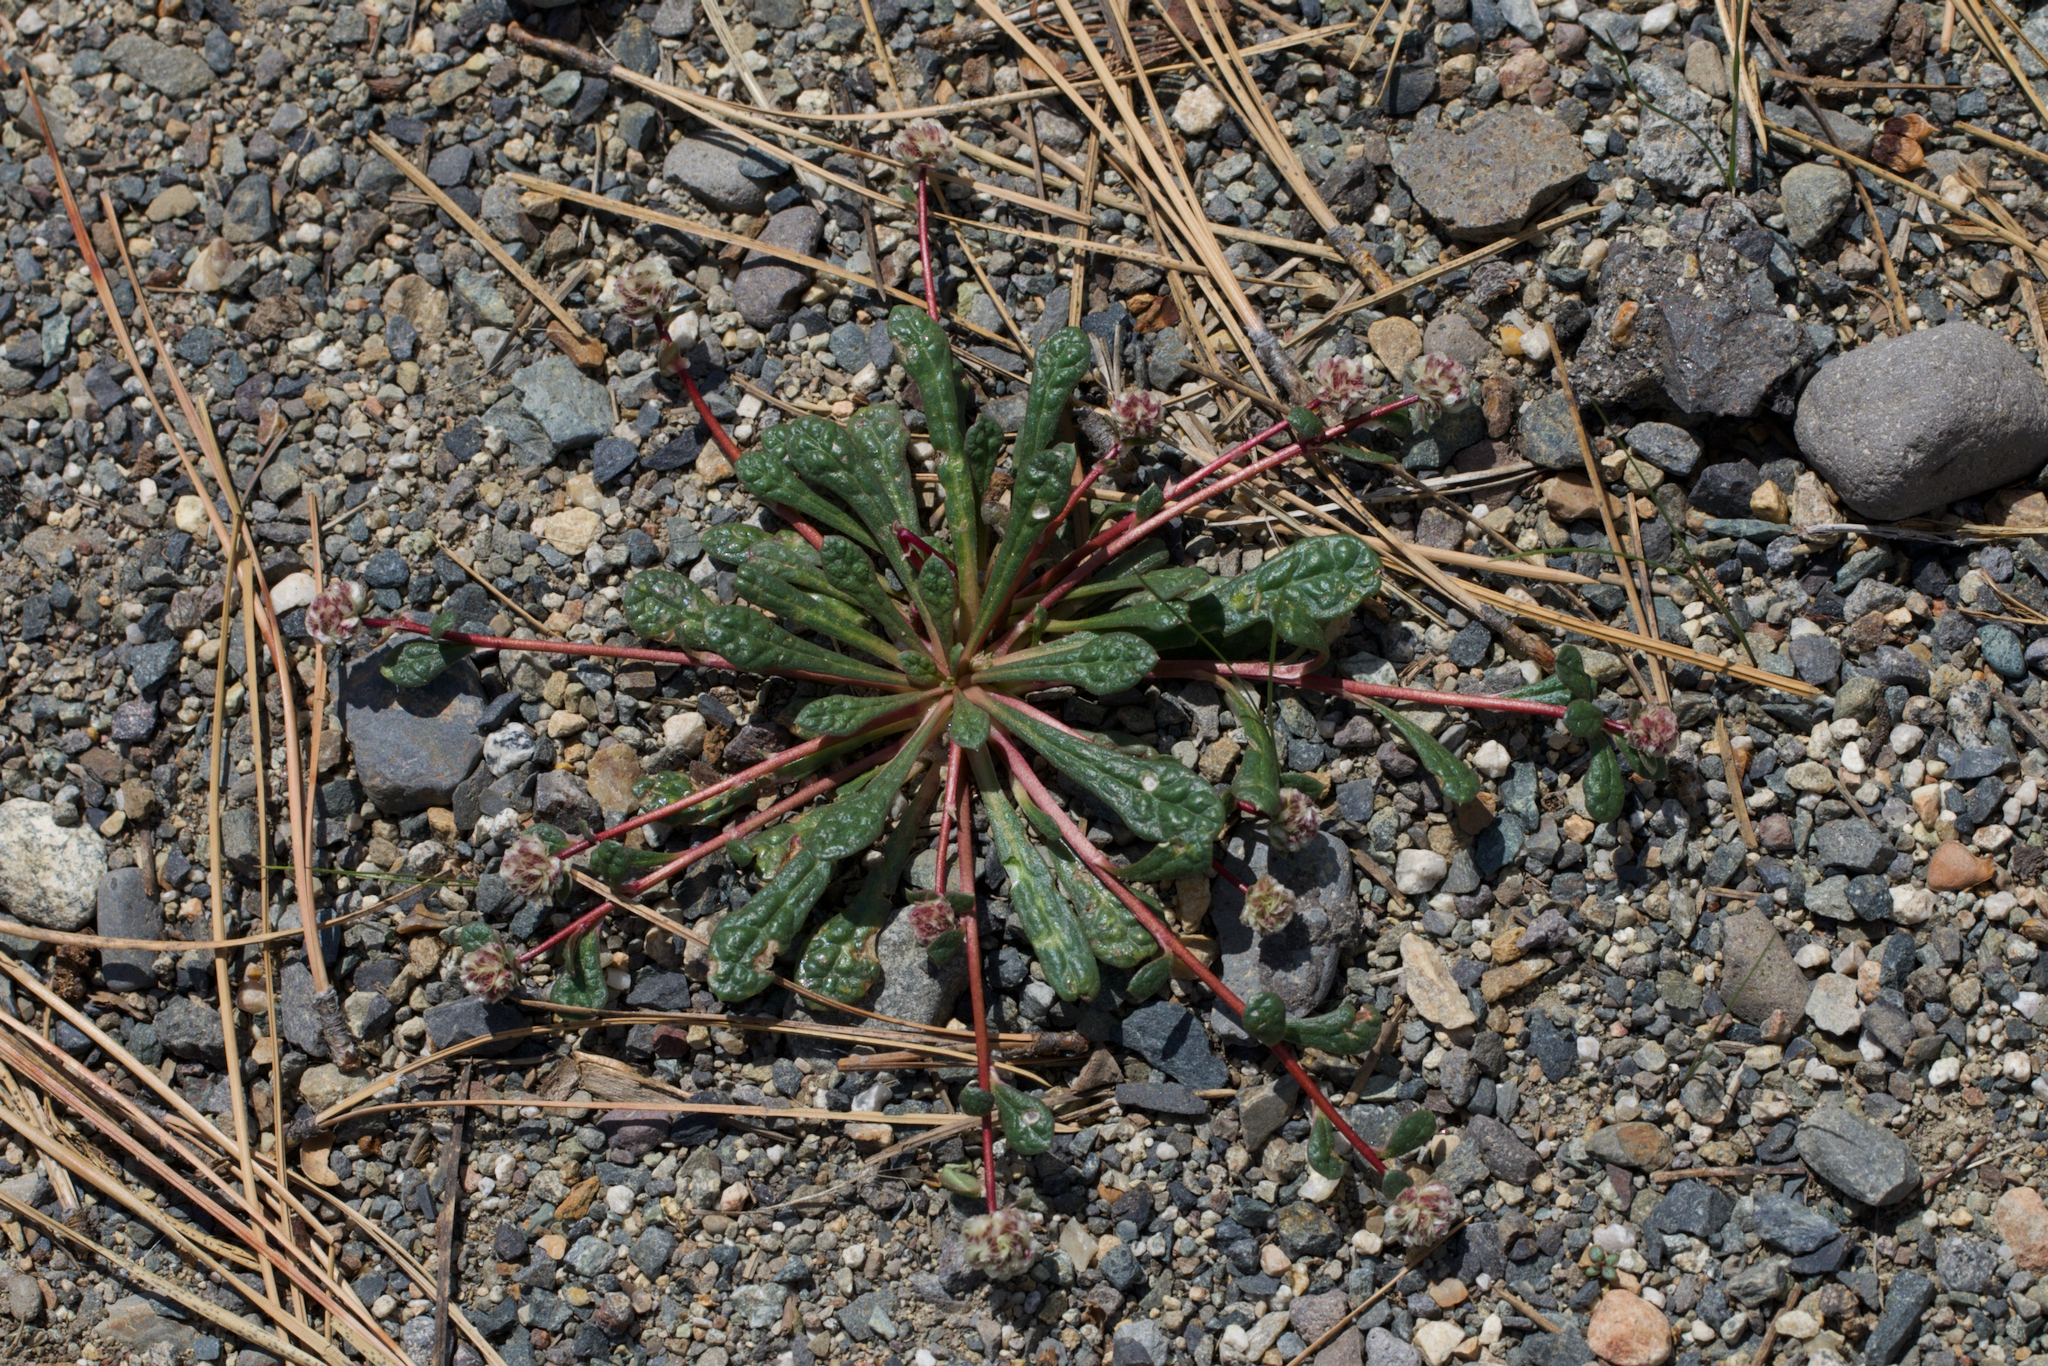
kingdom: Plantae
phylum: Tracheophyta
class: Magnoliopsida
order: Caryophyllales
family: Montiaceae
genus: Calyptridium
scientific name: Calyptridium monospermum
